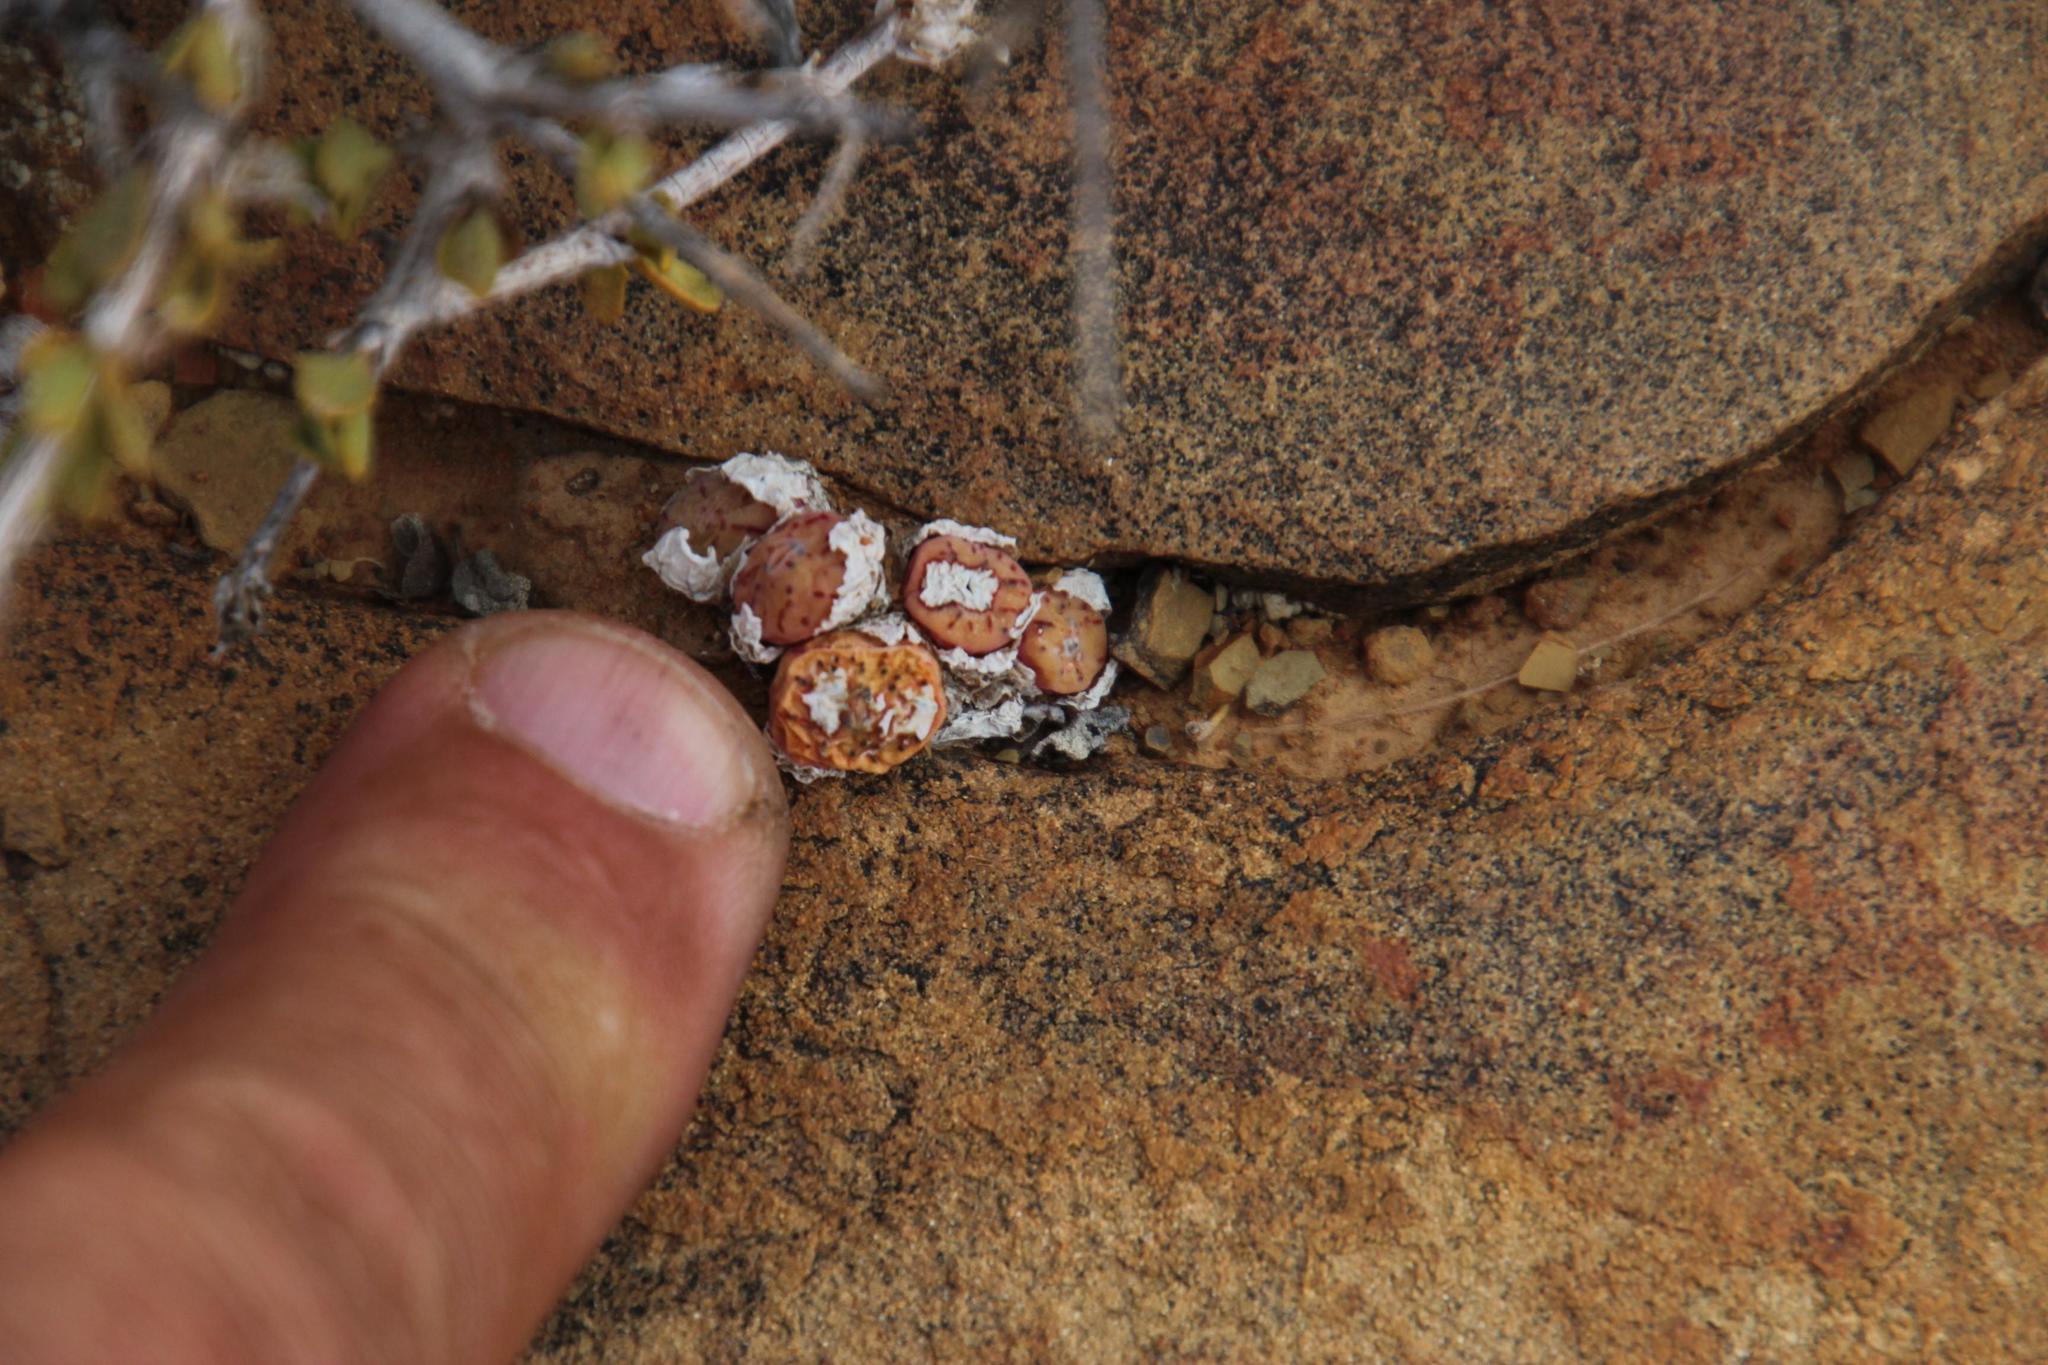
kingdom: Plantae
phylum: Tracheophyta
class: Magnoliopsida
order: Caryophyllales
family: Aizoaceae
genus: Conophytum
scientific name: Conophytum minimum
